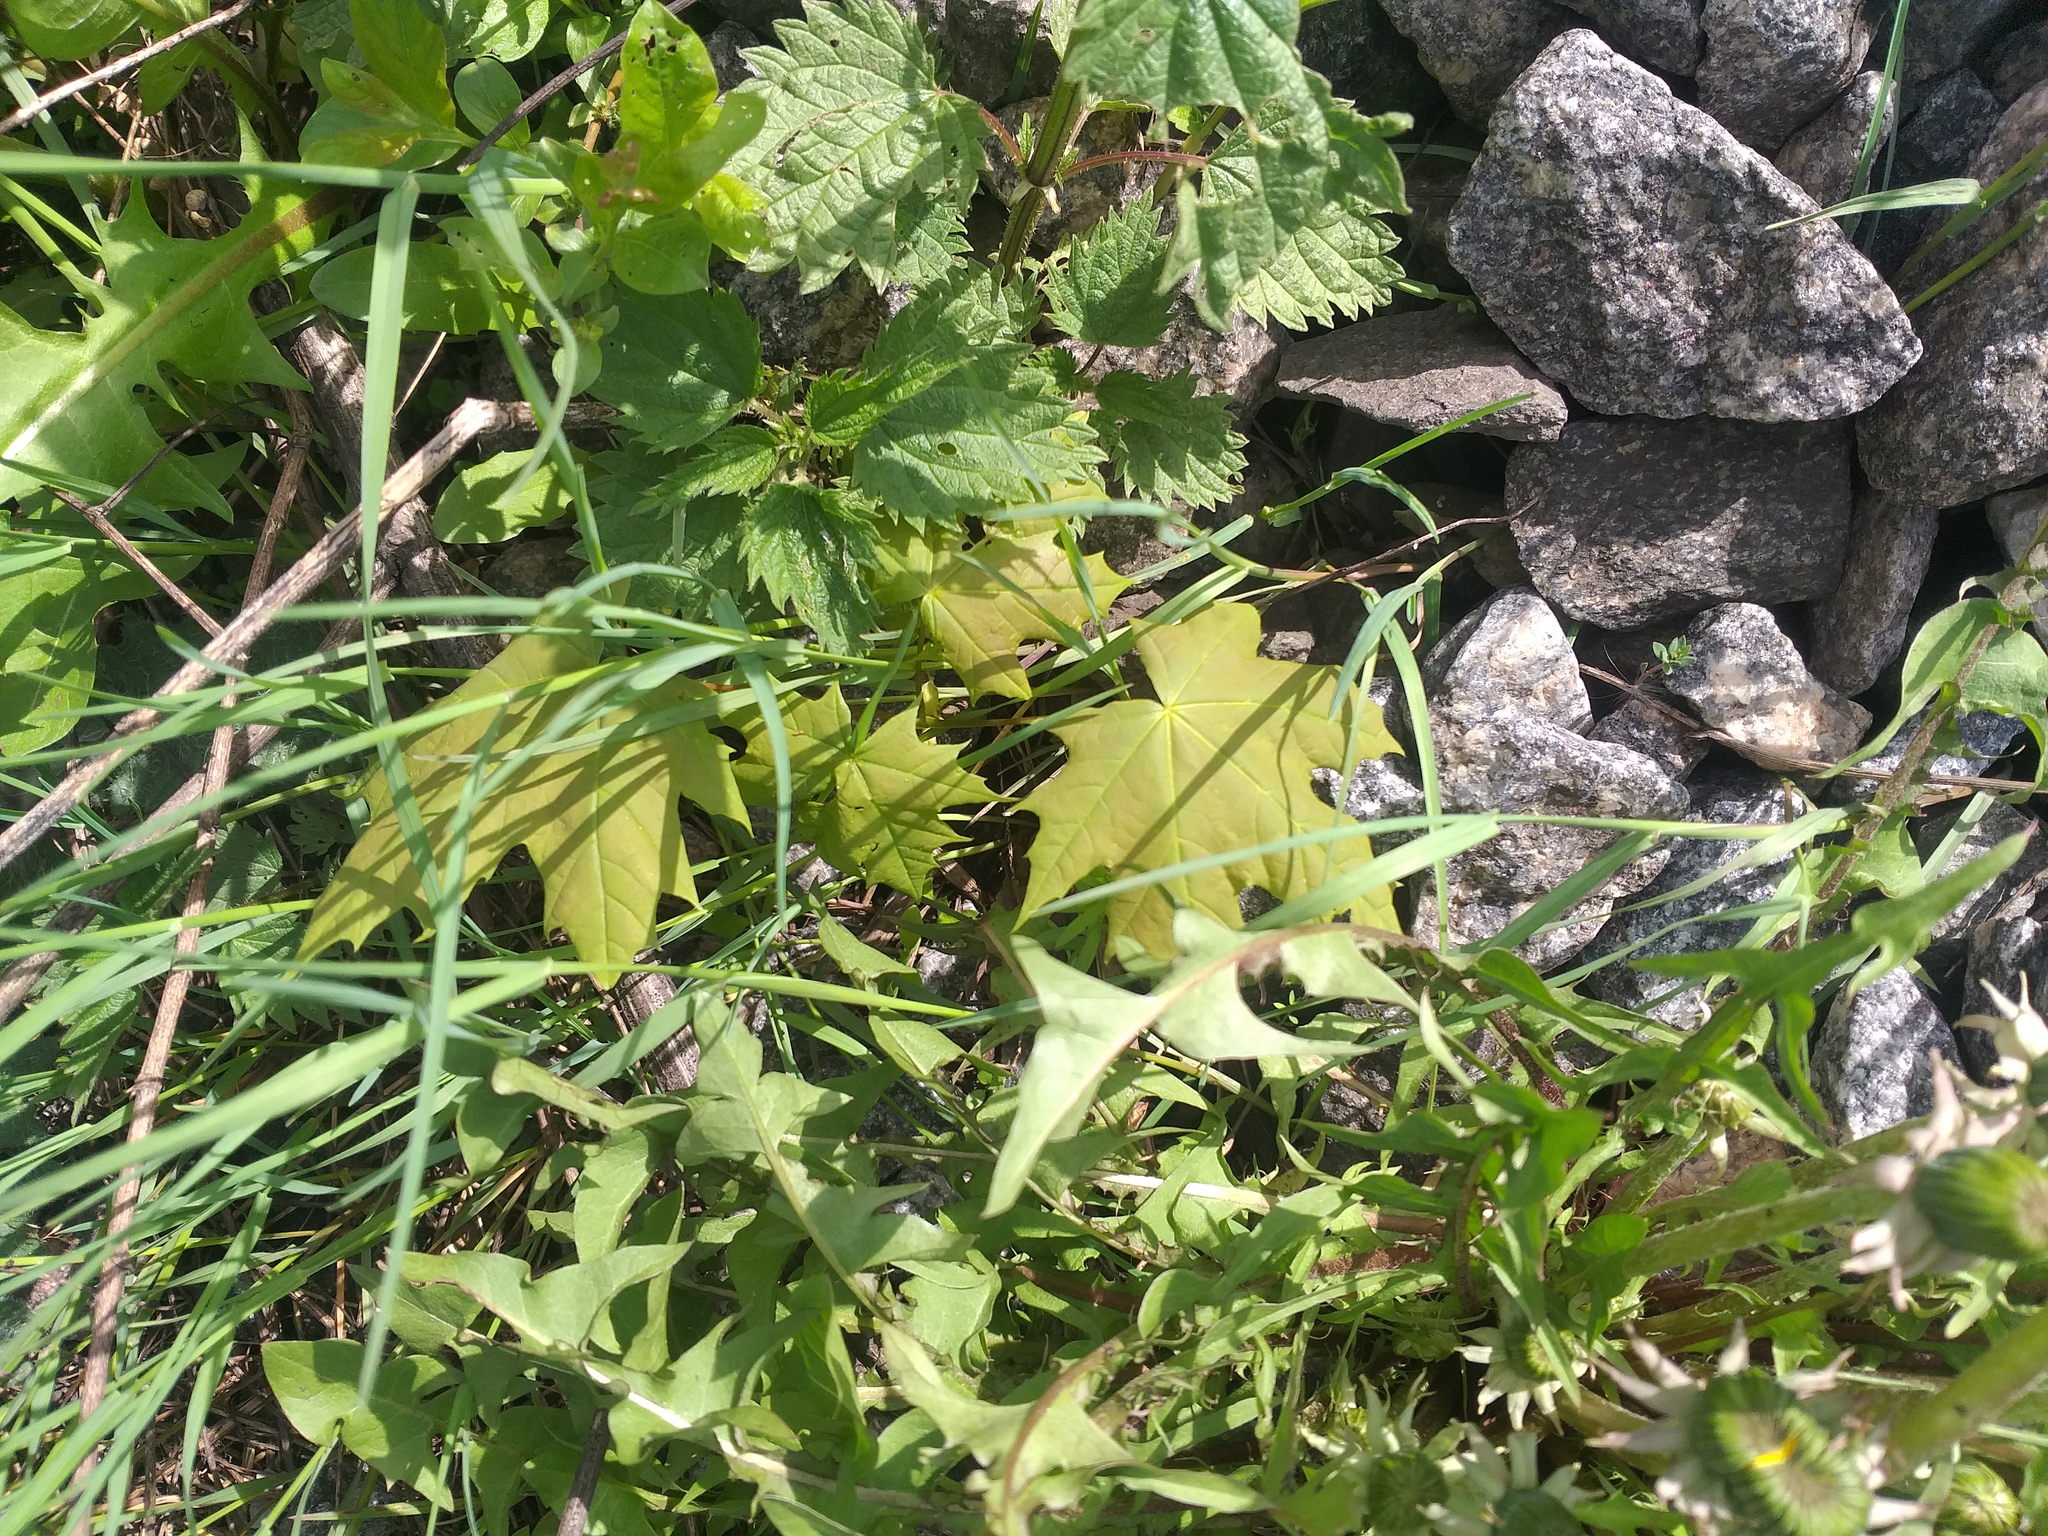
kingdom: Plantae
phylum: Tracheophyta
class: Magnoliopsida
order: Sapindales
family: Sapindaceae
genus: Acer
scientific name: Acer platanoides
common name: Norway maple
